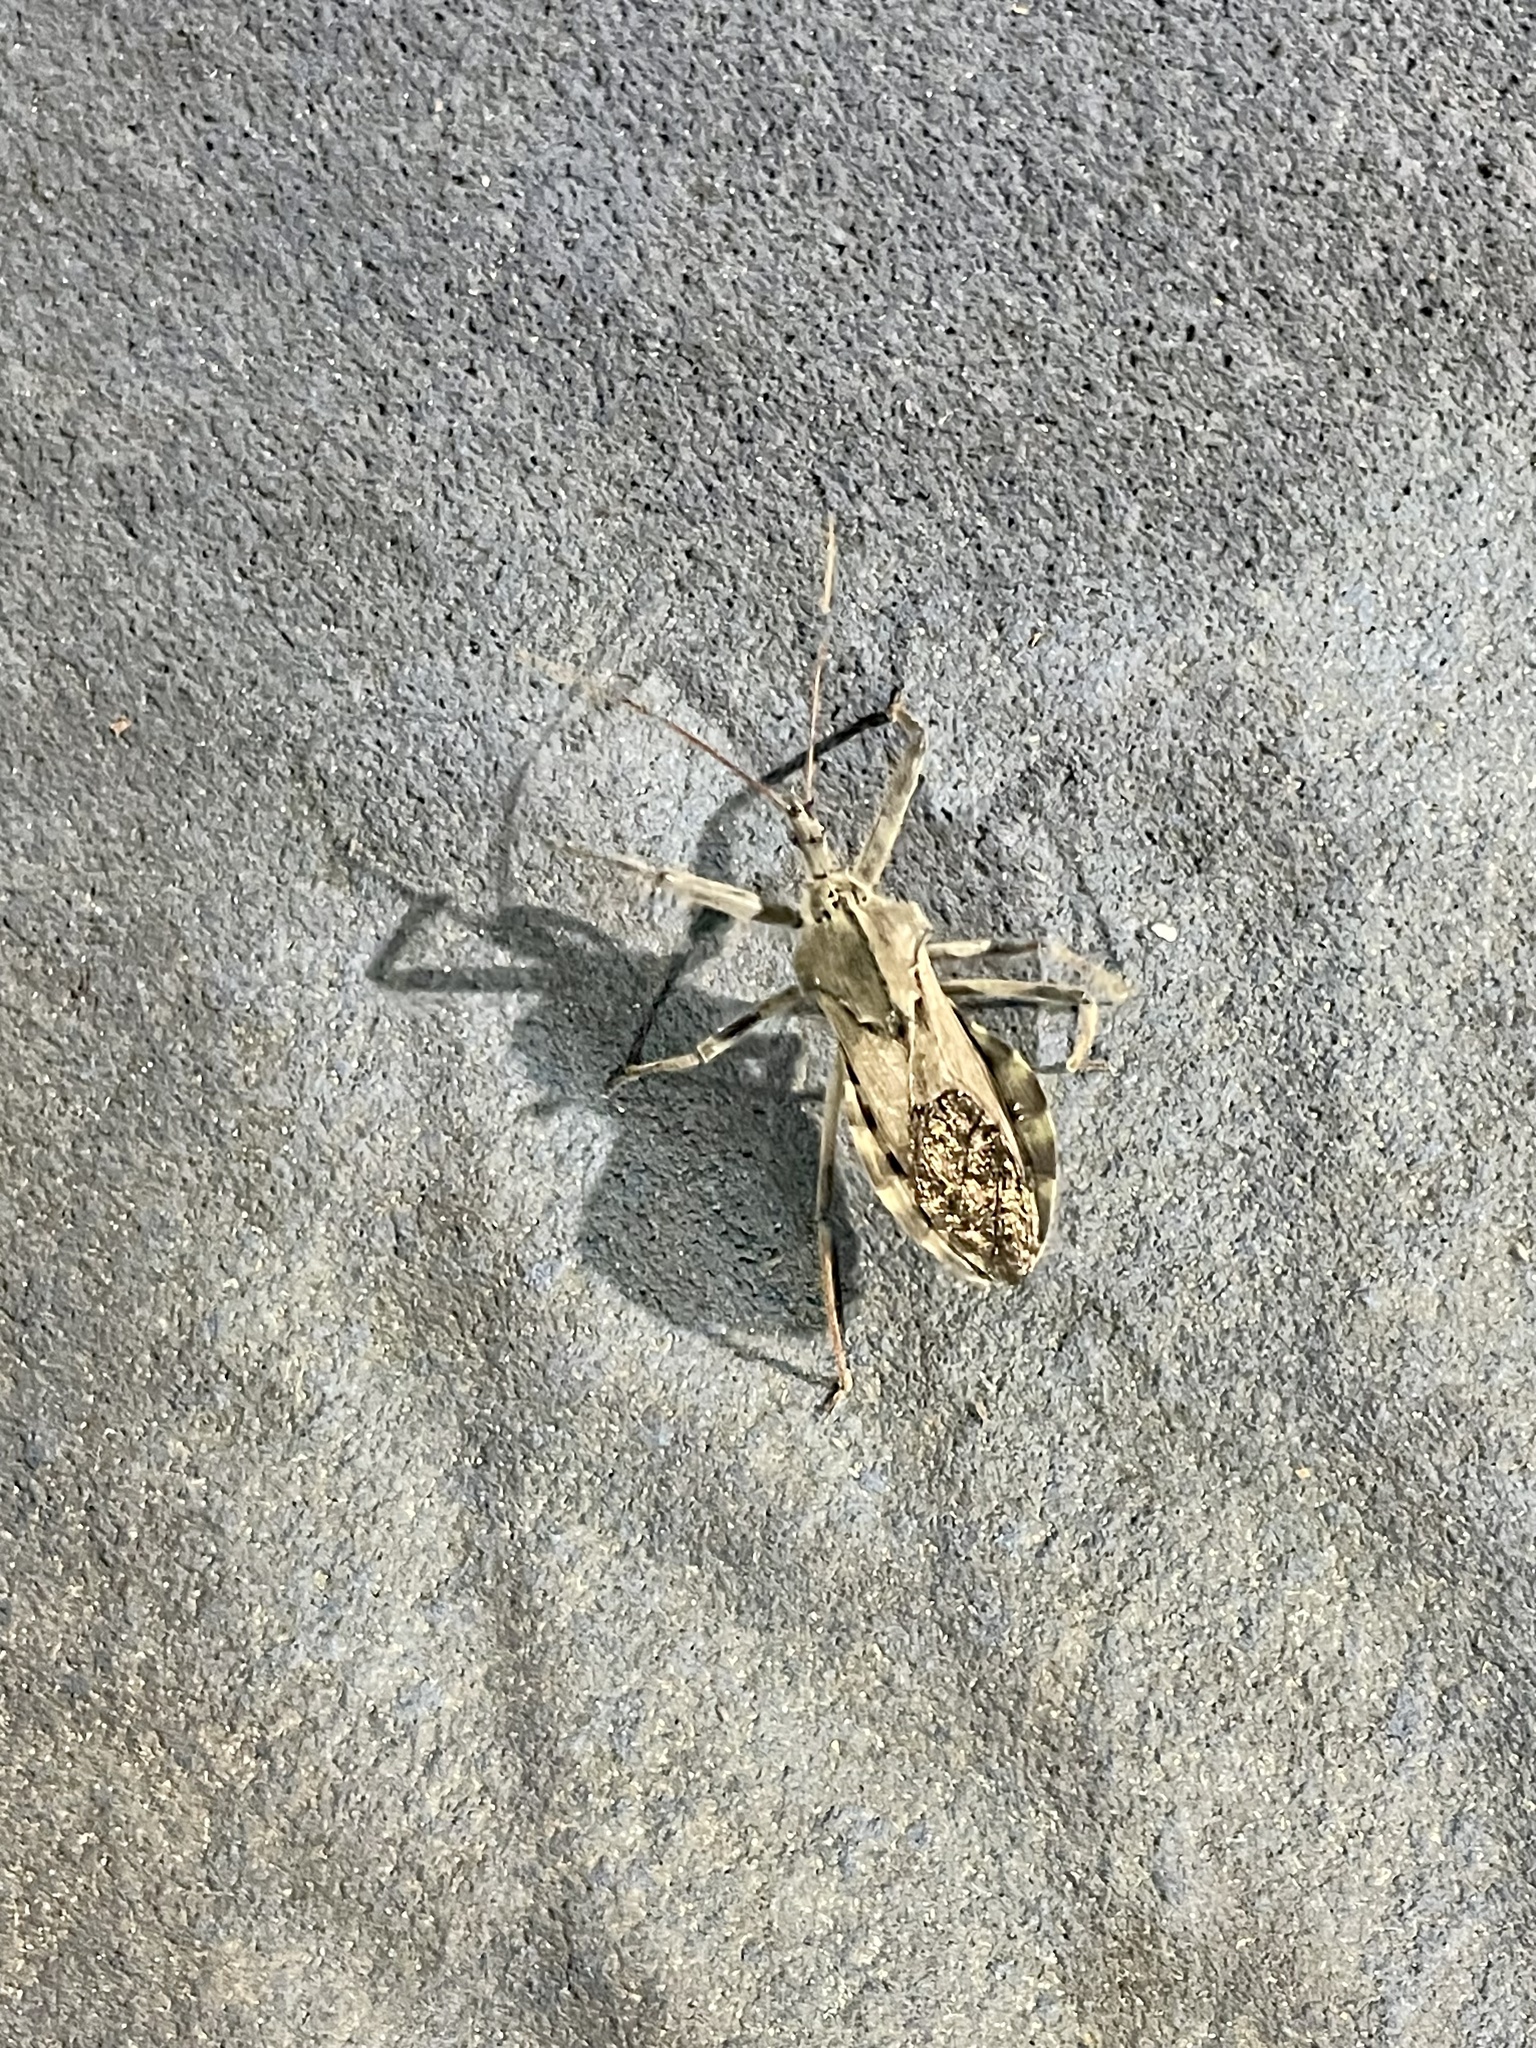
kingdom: Animalia
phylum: Arthropoda
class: Insecta
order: Hemiptera
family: Reduviidae
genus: Arilus
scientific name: Arilus cristatus
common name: North american wheel bug
